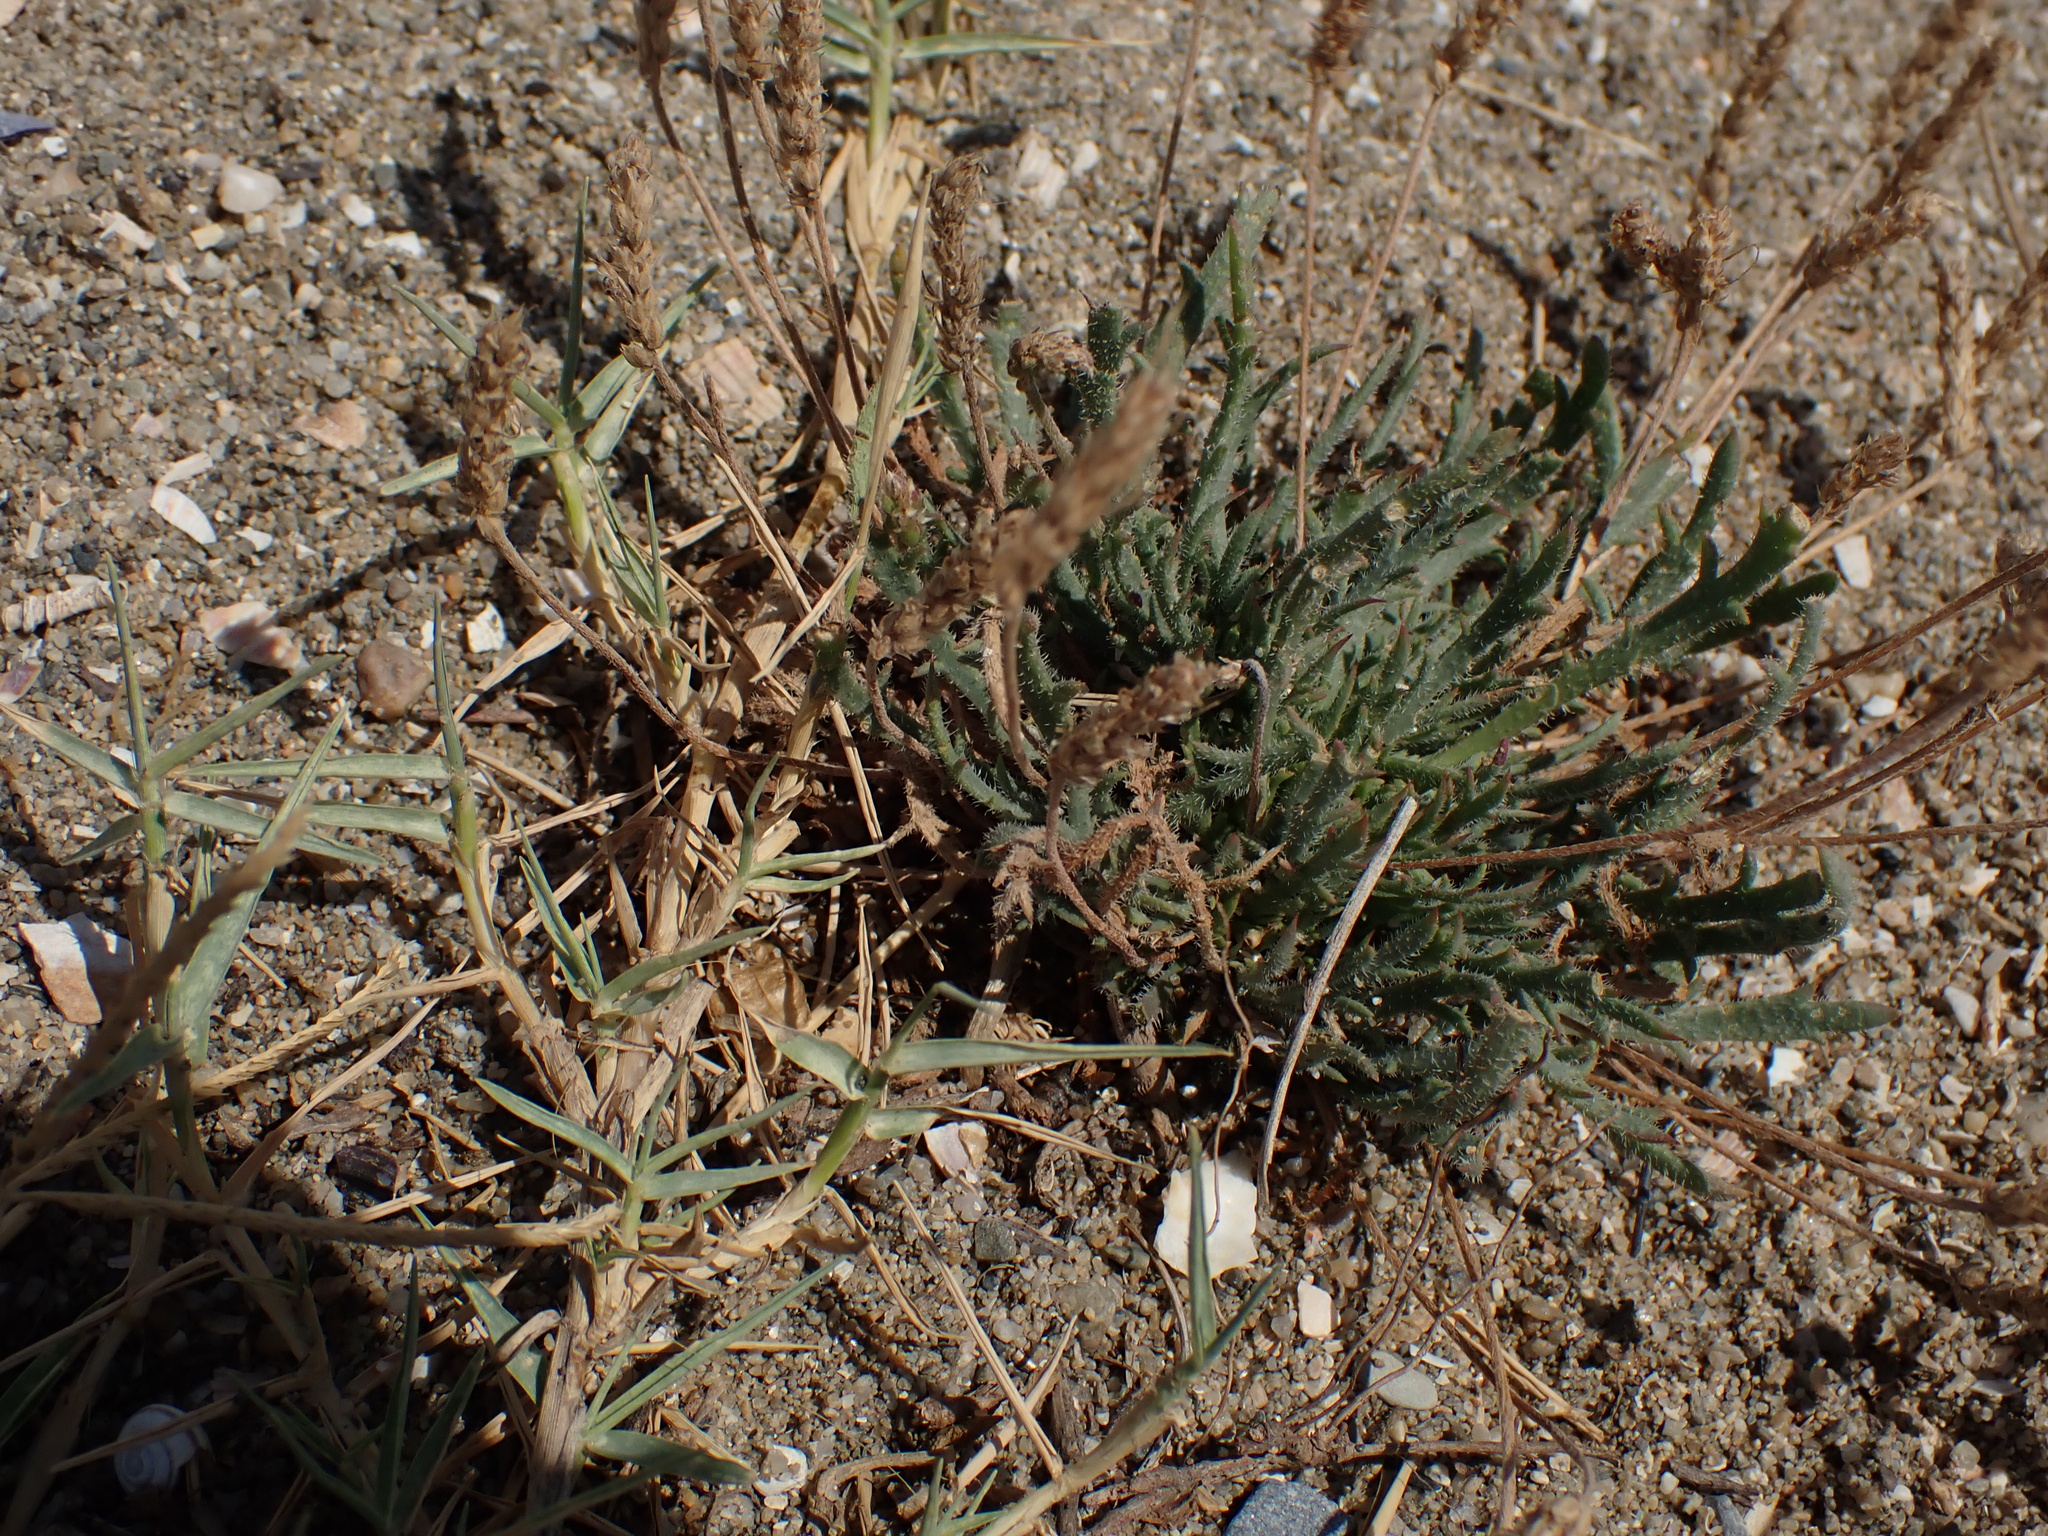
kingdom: Plantae
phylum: Tracheophyta
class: Magnoliopsida
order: Lamiales
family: Plantaginaceae
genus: Plantago
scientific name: Plantago coronopus
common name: Buck's-horn plantain
